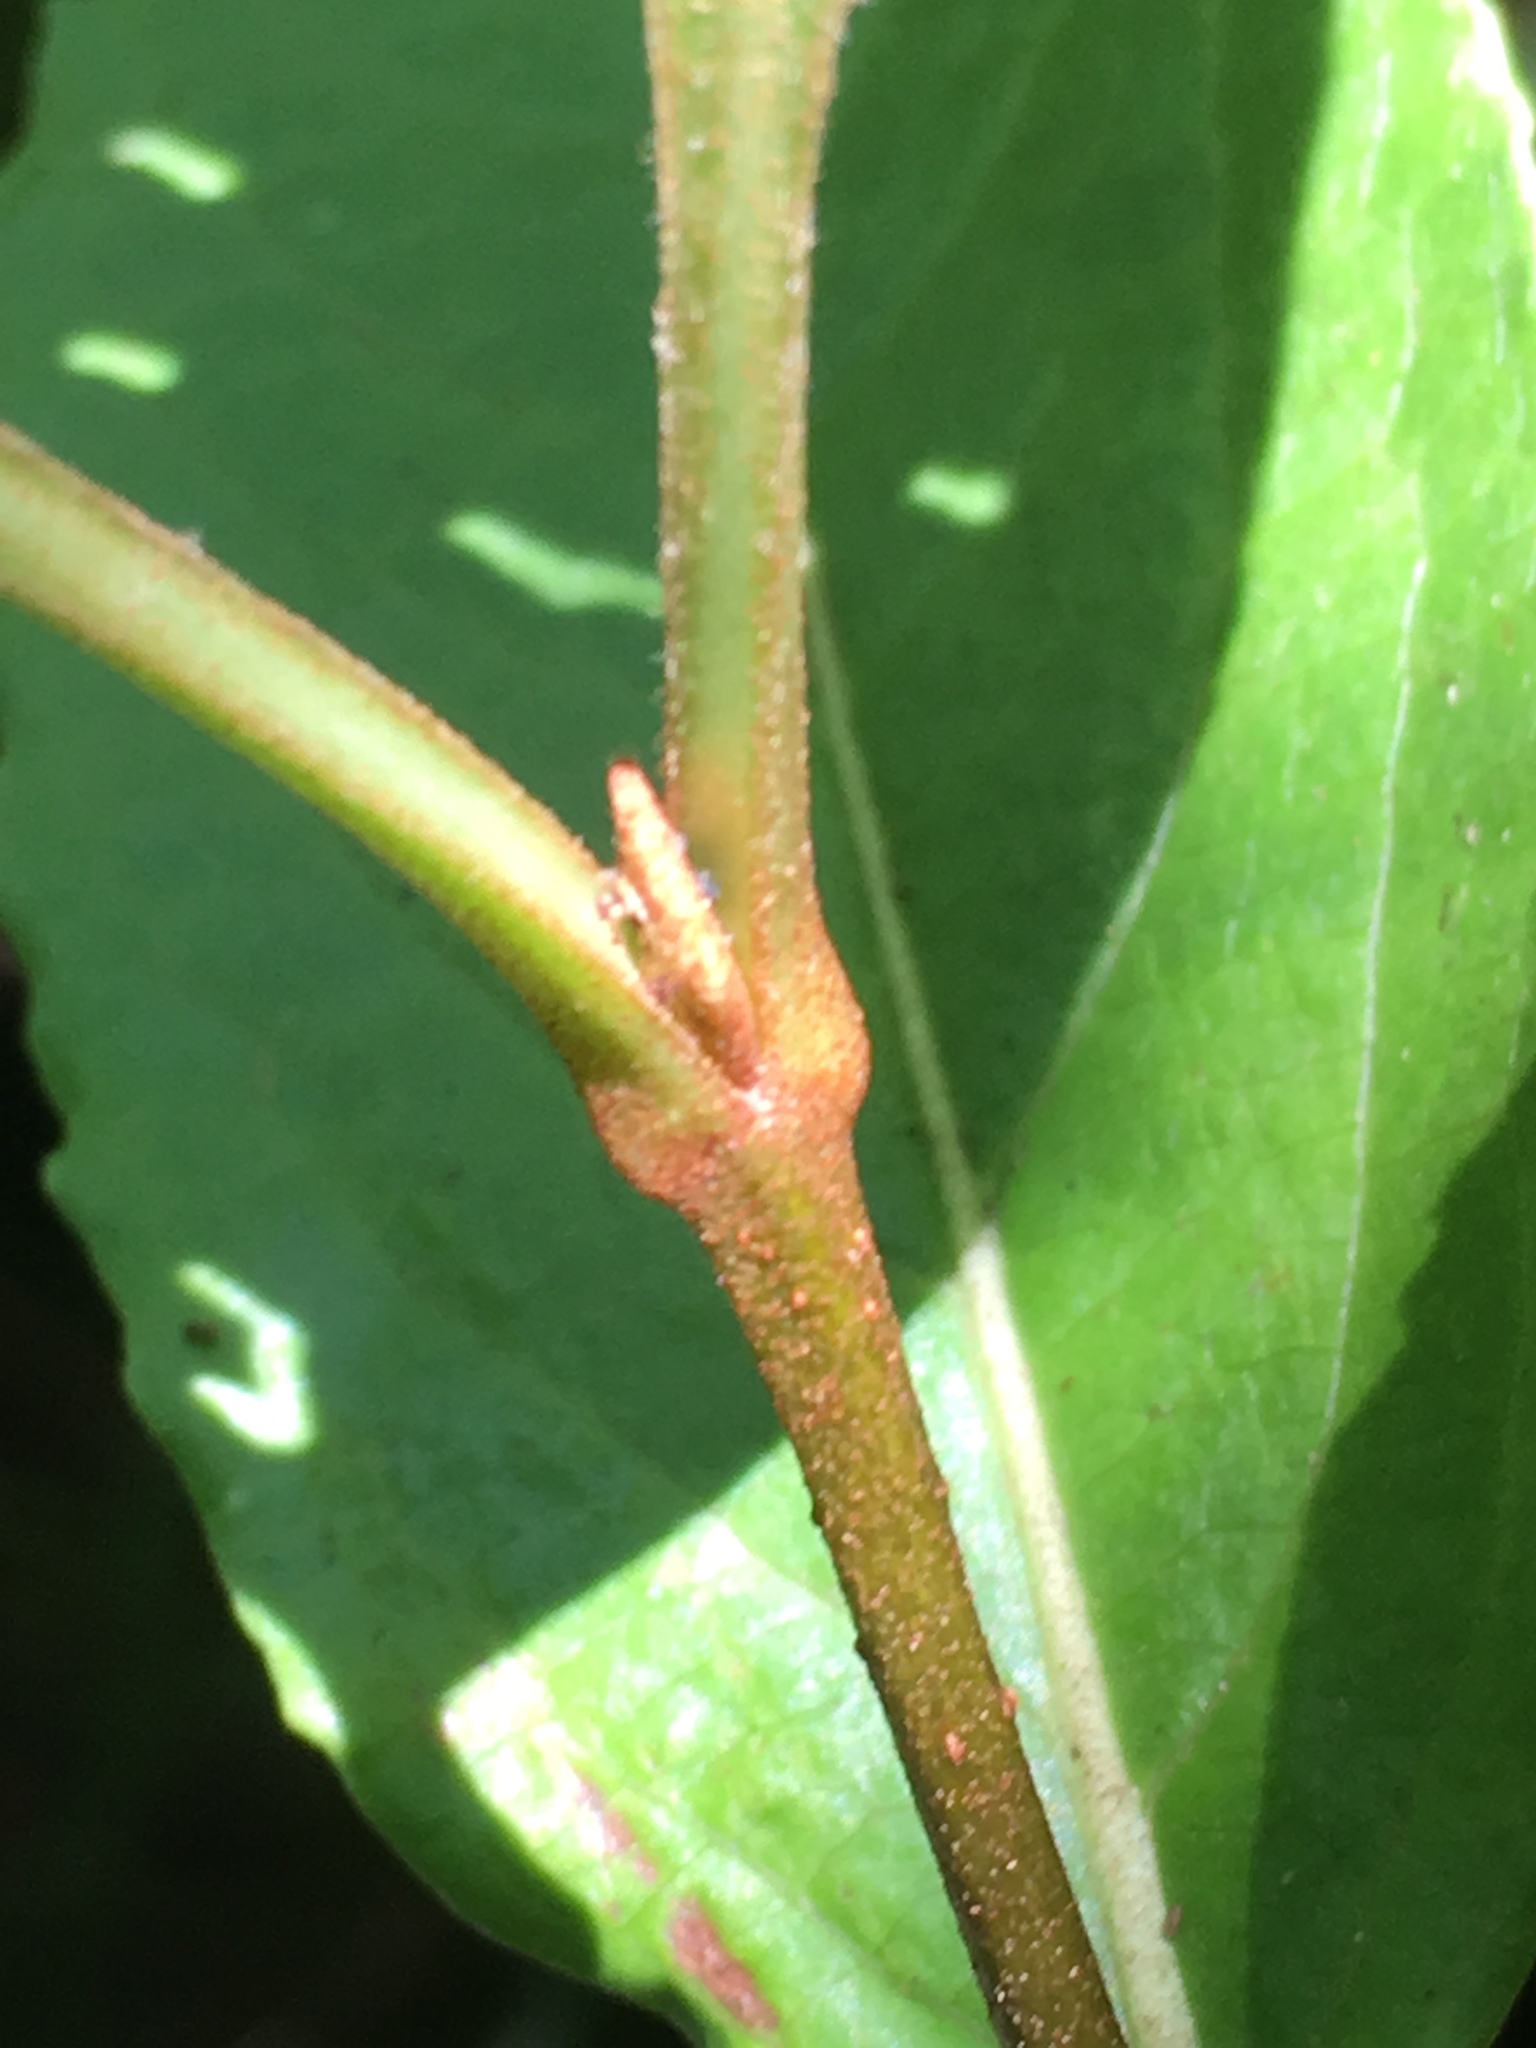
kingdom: Plantae
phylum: Tracheophyta
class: Magnoliopsida
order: Dipsacales
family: Viburnaceae
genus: Viburnum
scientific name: Viburnum nudum
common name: Possum haw
